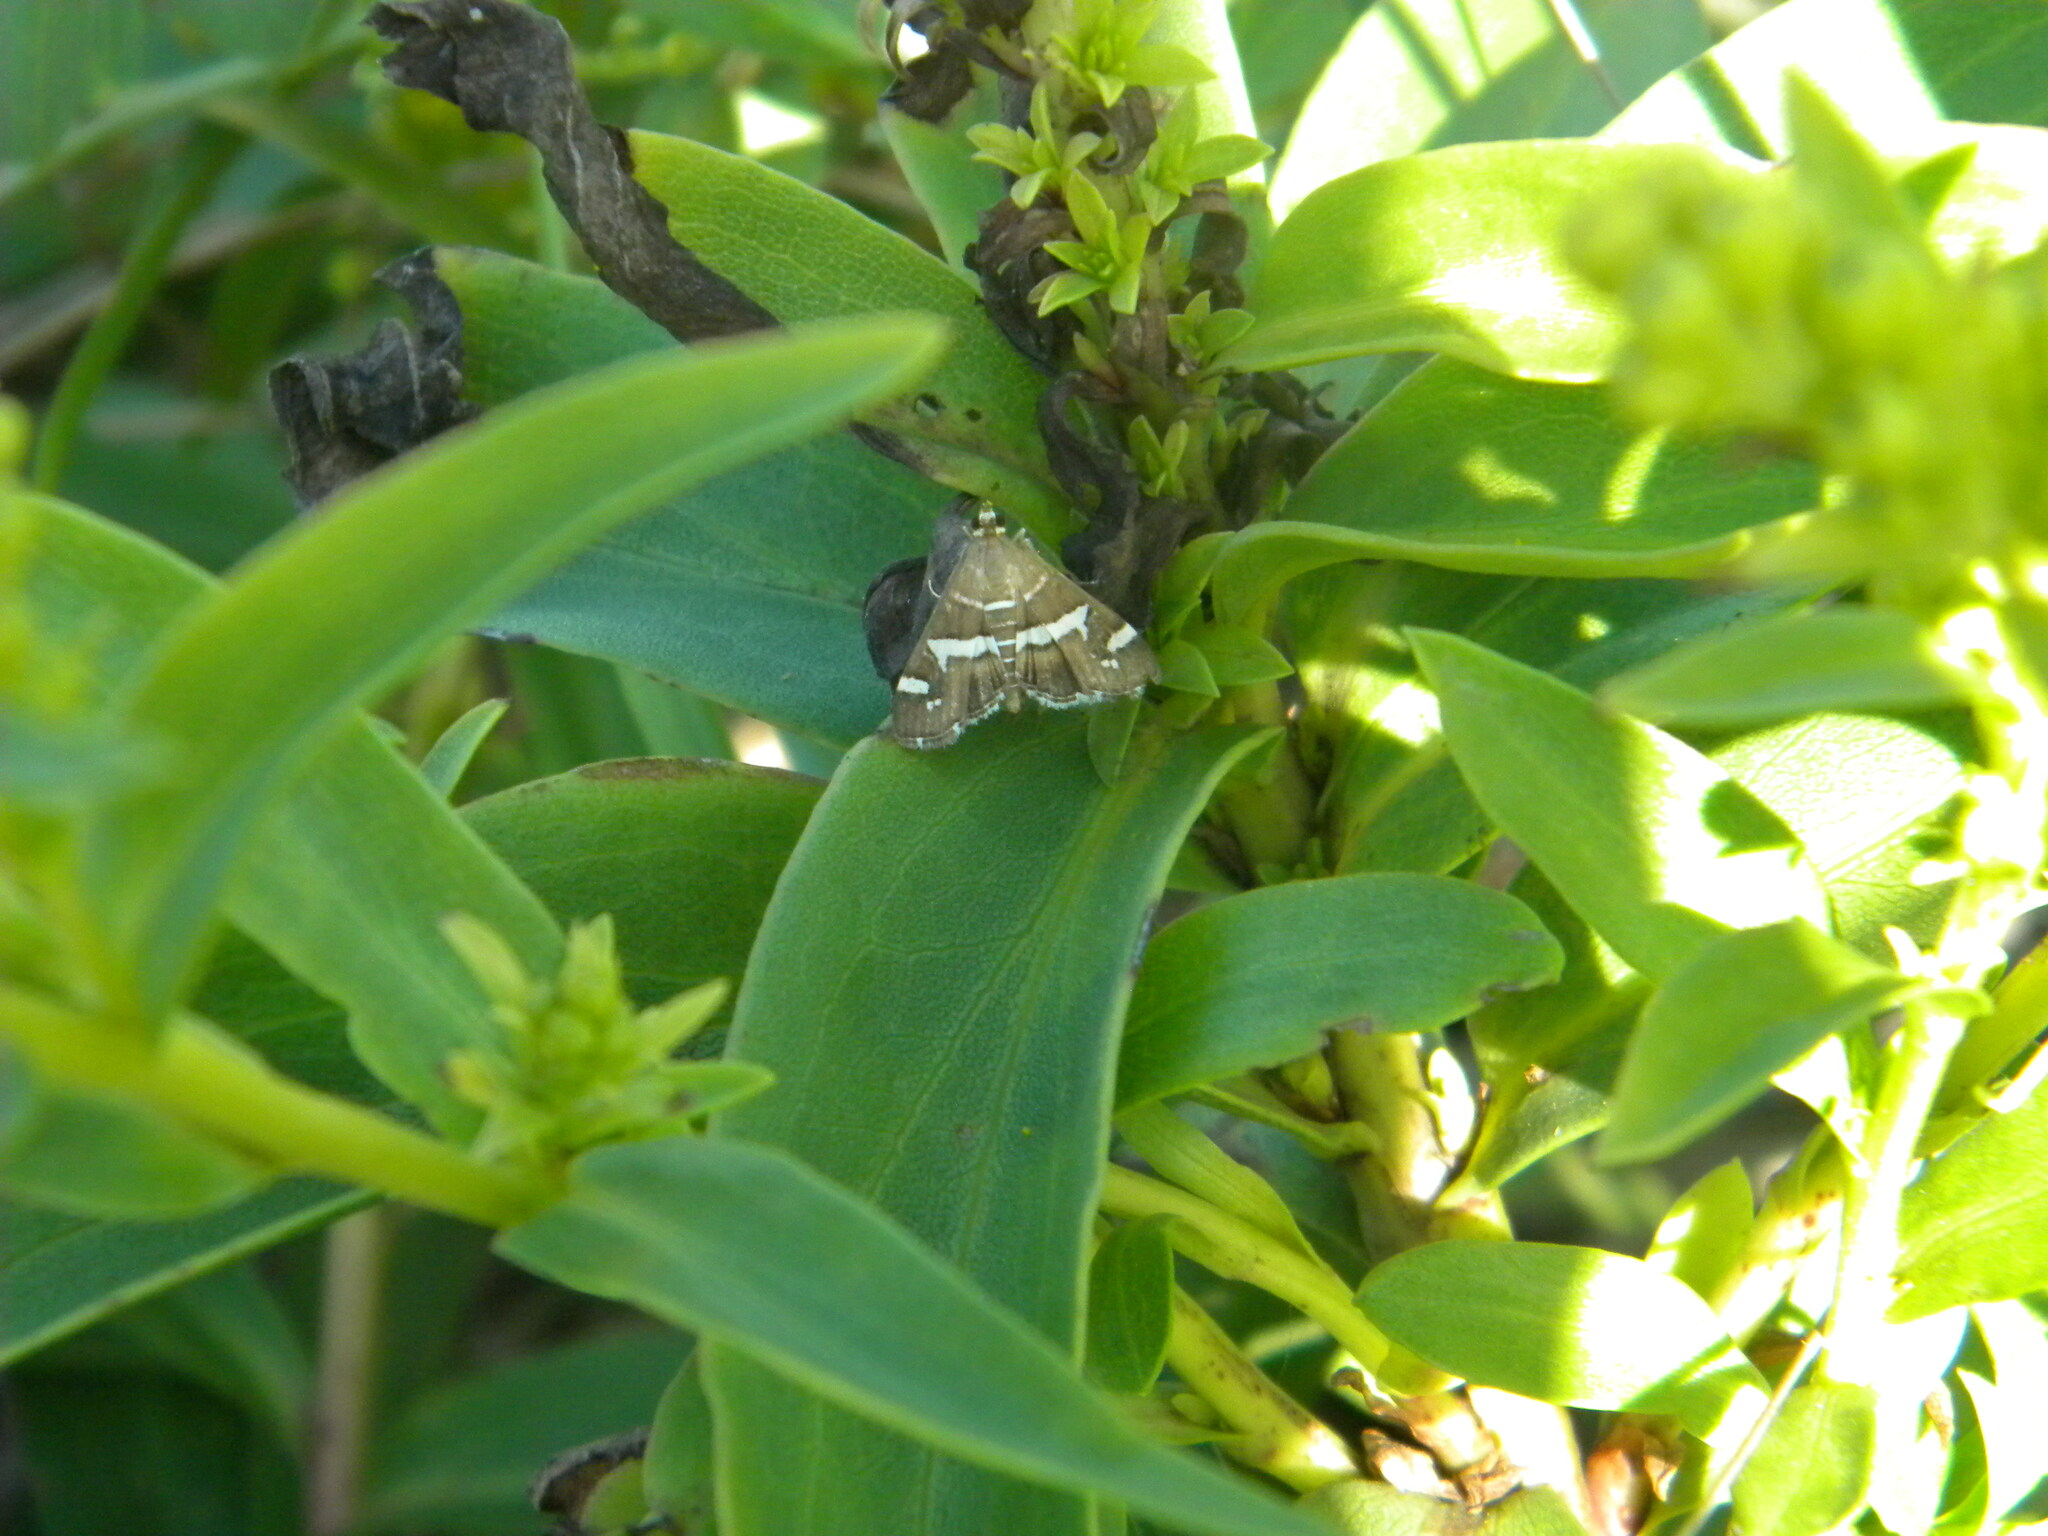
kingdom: Animalia
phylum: Arthropoda
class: Insecta
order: Lepidoptera
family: Crambidae
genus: Spoladea
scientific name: Spoladea recurvalis
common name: Beet webworm moth
